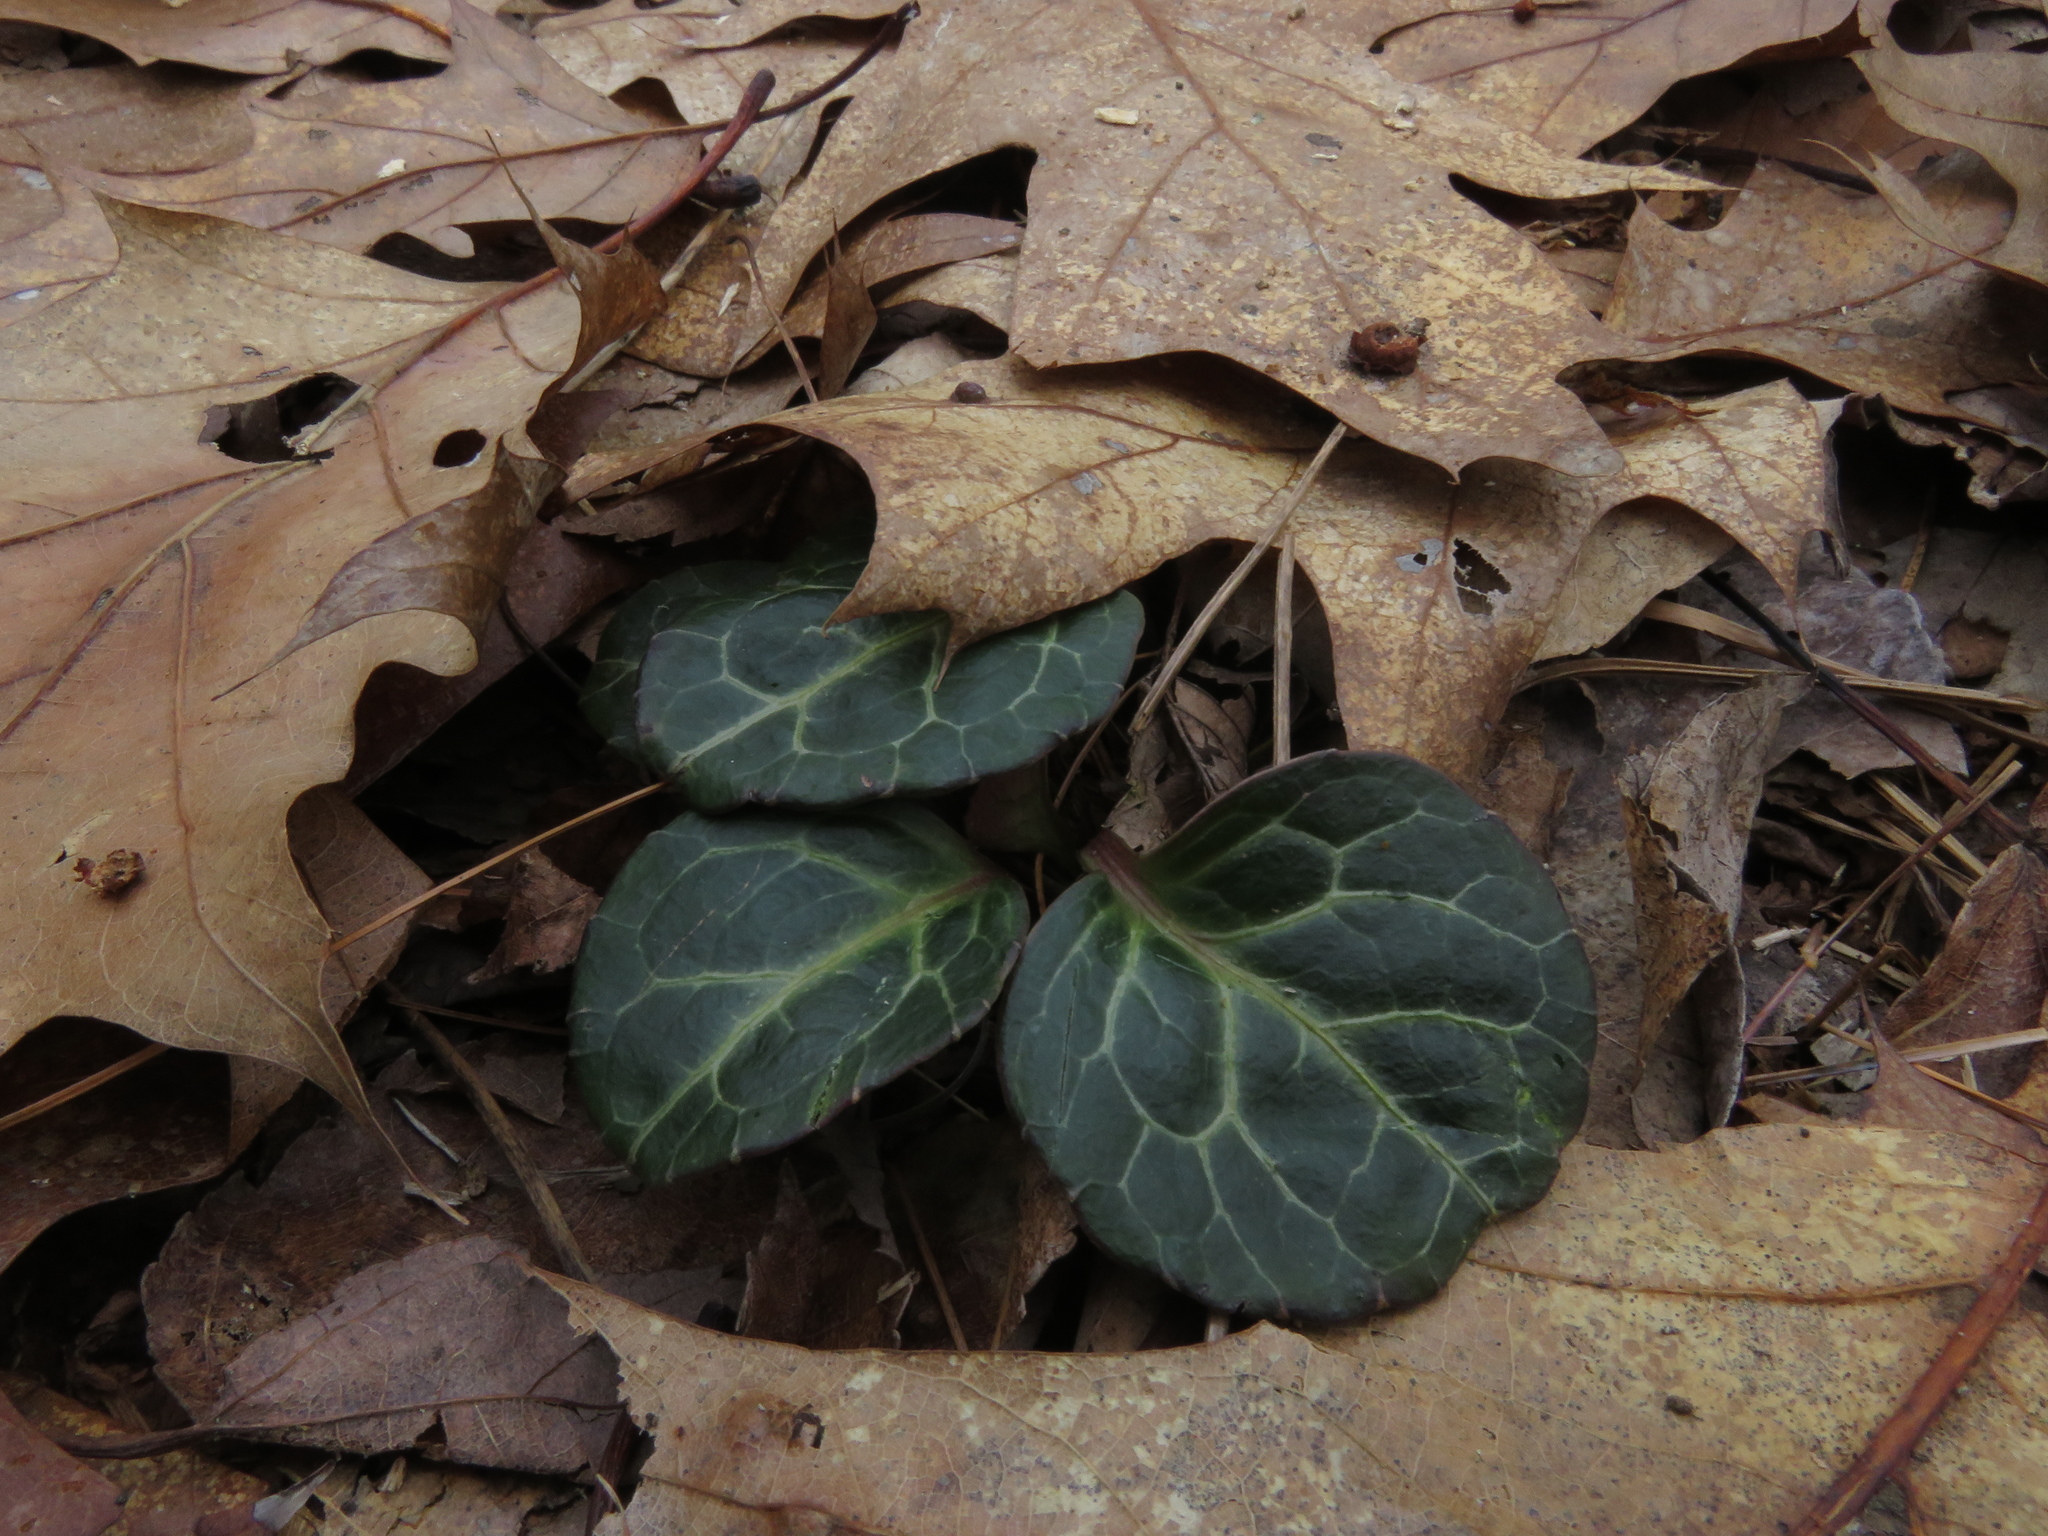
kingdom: Plantae
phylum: Tracheophyta
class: Magnoliopsida
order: Ericales
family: Ericaceae
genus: Pyrola
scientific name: Pyrola americana
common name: American wintergreen
